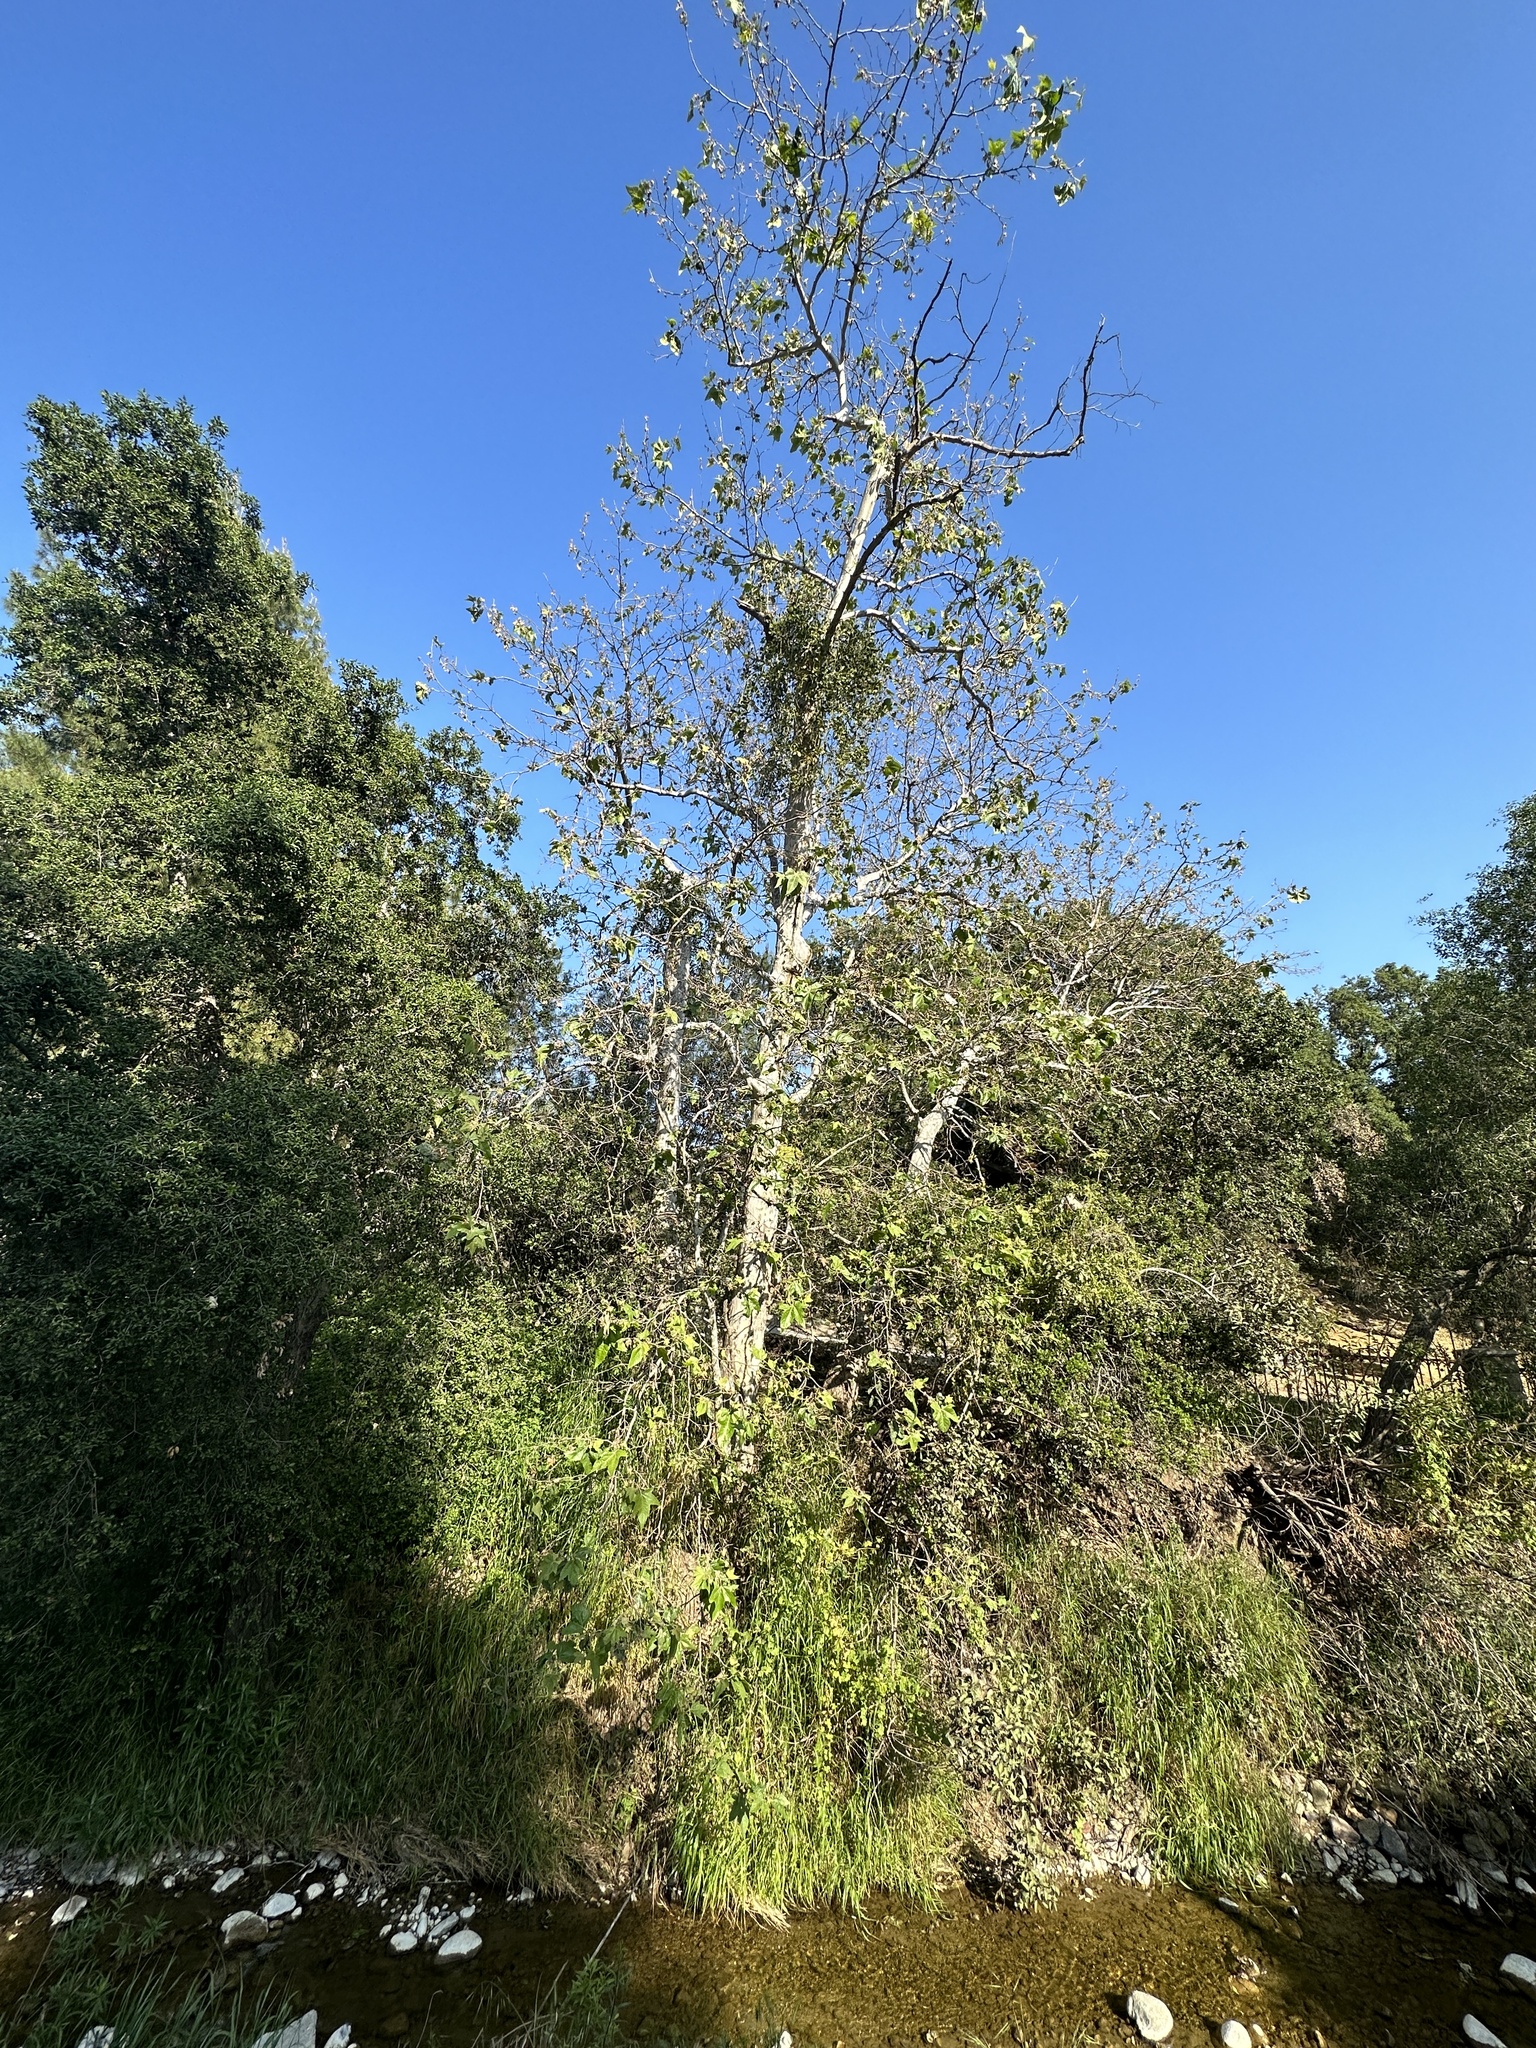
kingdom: Plantae
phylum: Tracheophyta
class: Magnoliopsida
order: Proteales
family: Platanaceae
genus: Platanus
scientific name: Platanus racemosa
